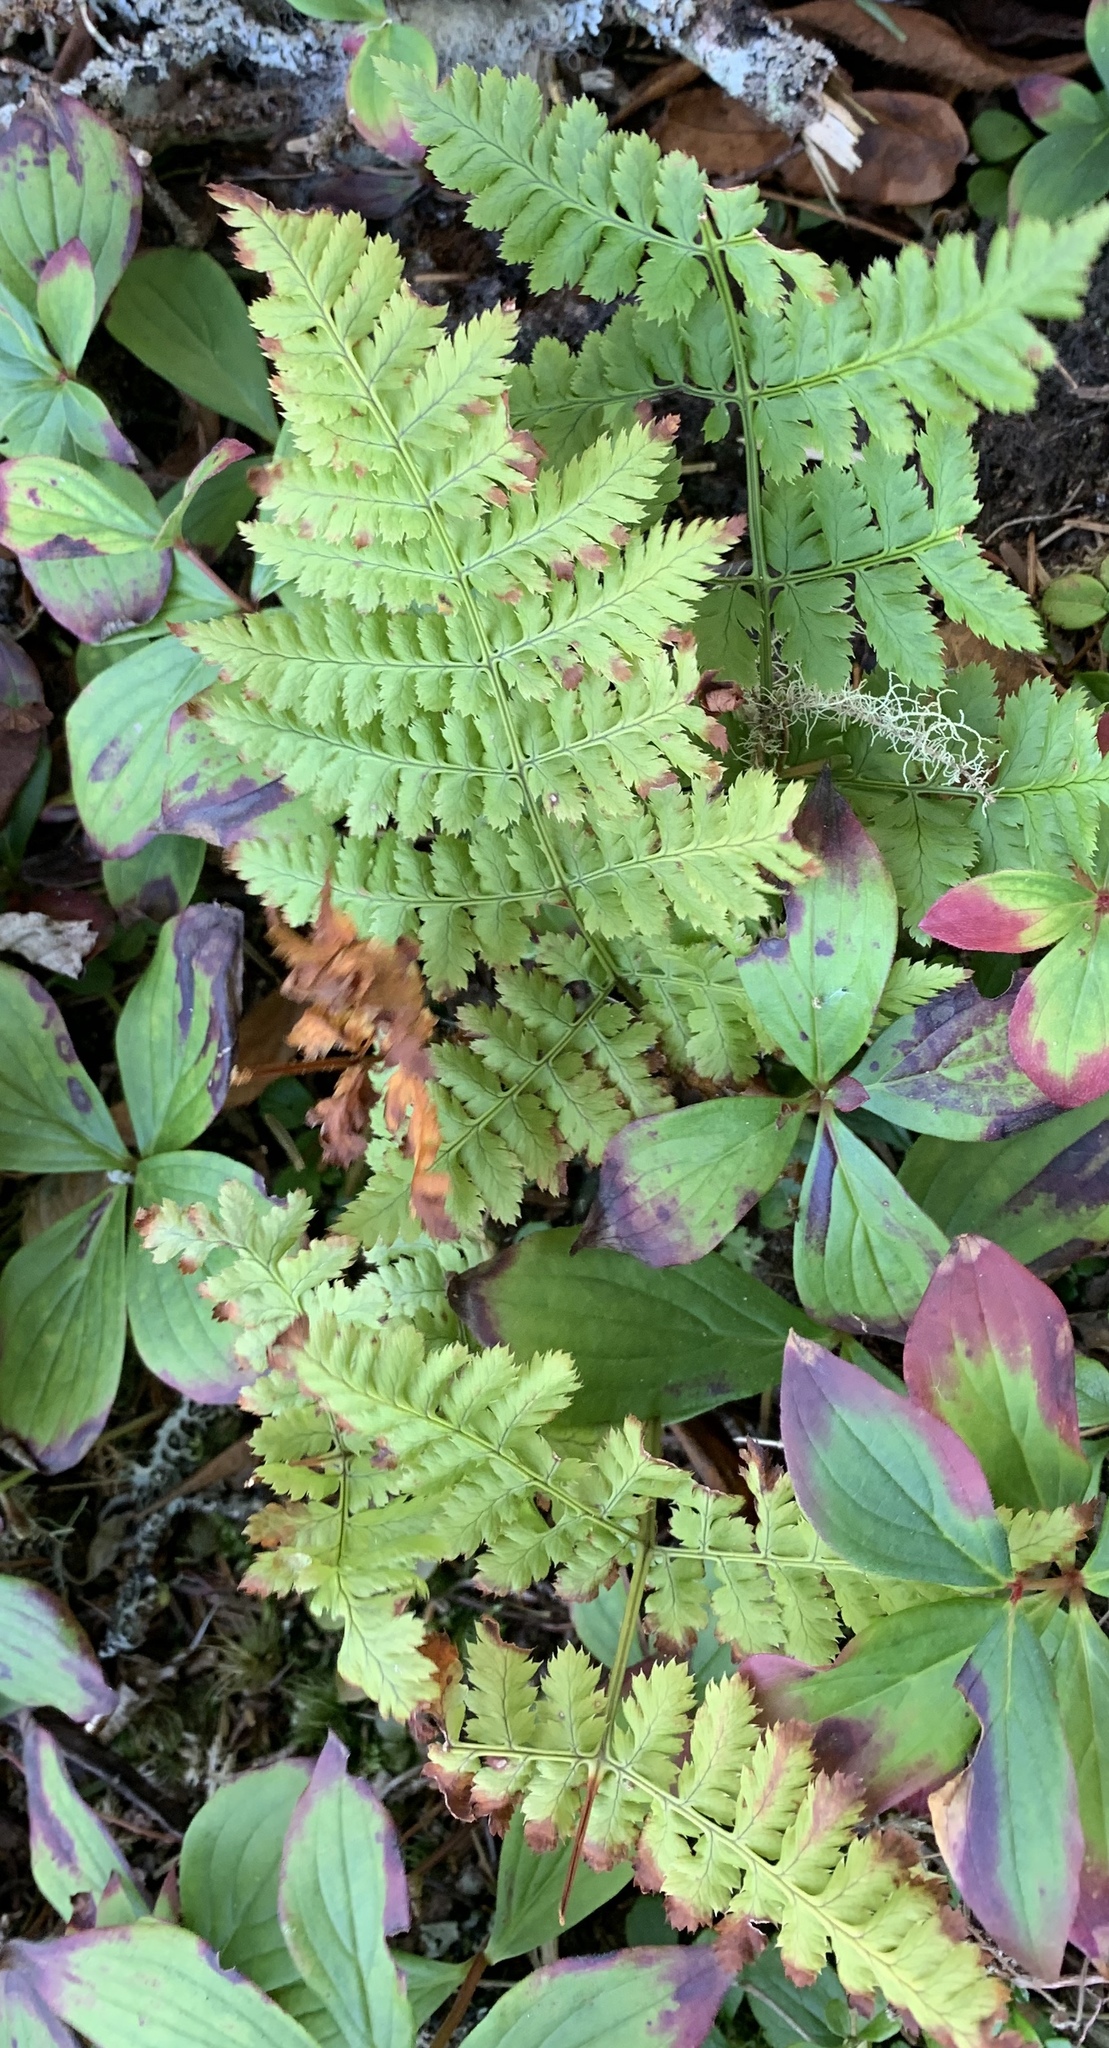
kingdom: Plantae
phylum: Tracheophyta
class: Polypodiopsida
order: Polypodiales
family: Dryopteridaceae
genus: Dryopteris
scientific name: Dryopteris intermedia
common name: Evergreen wood fern
